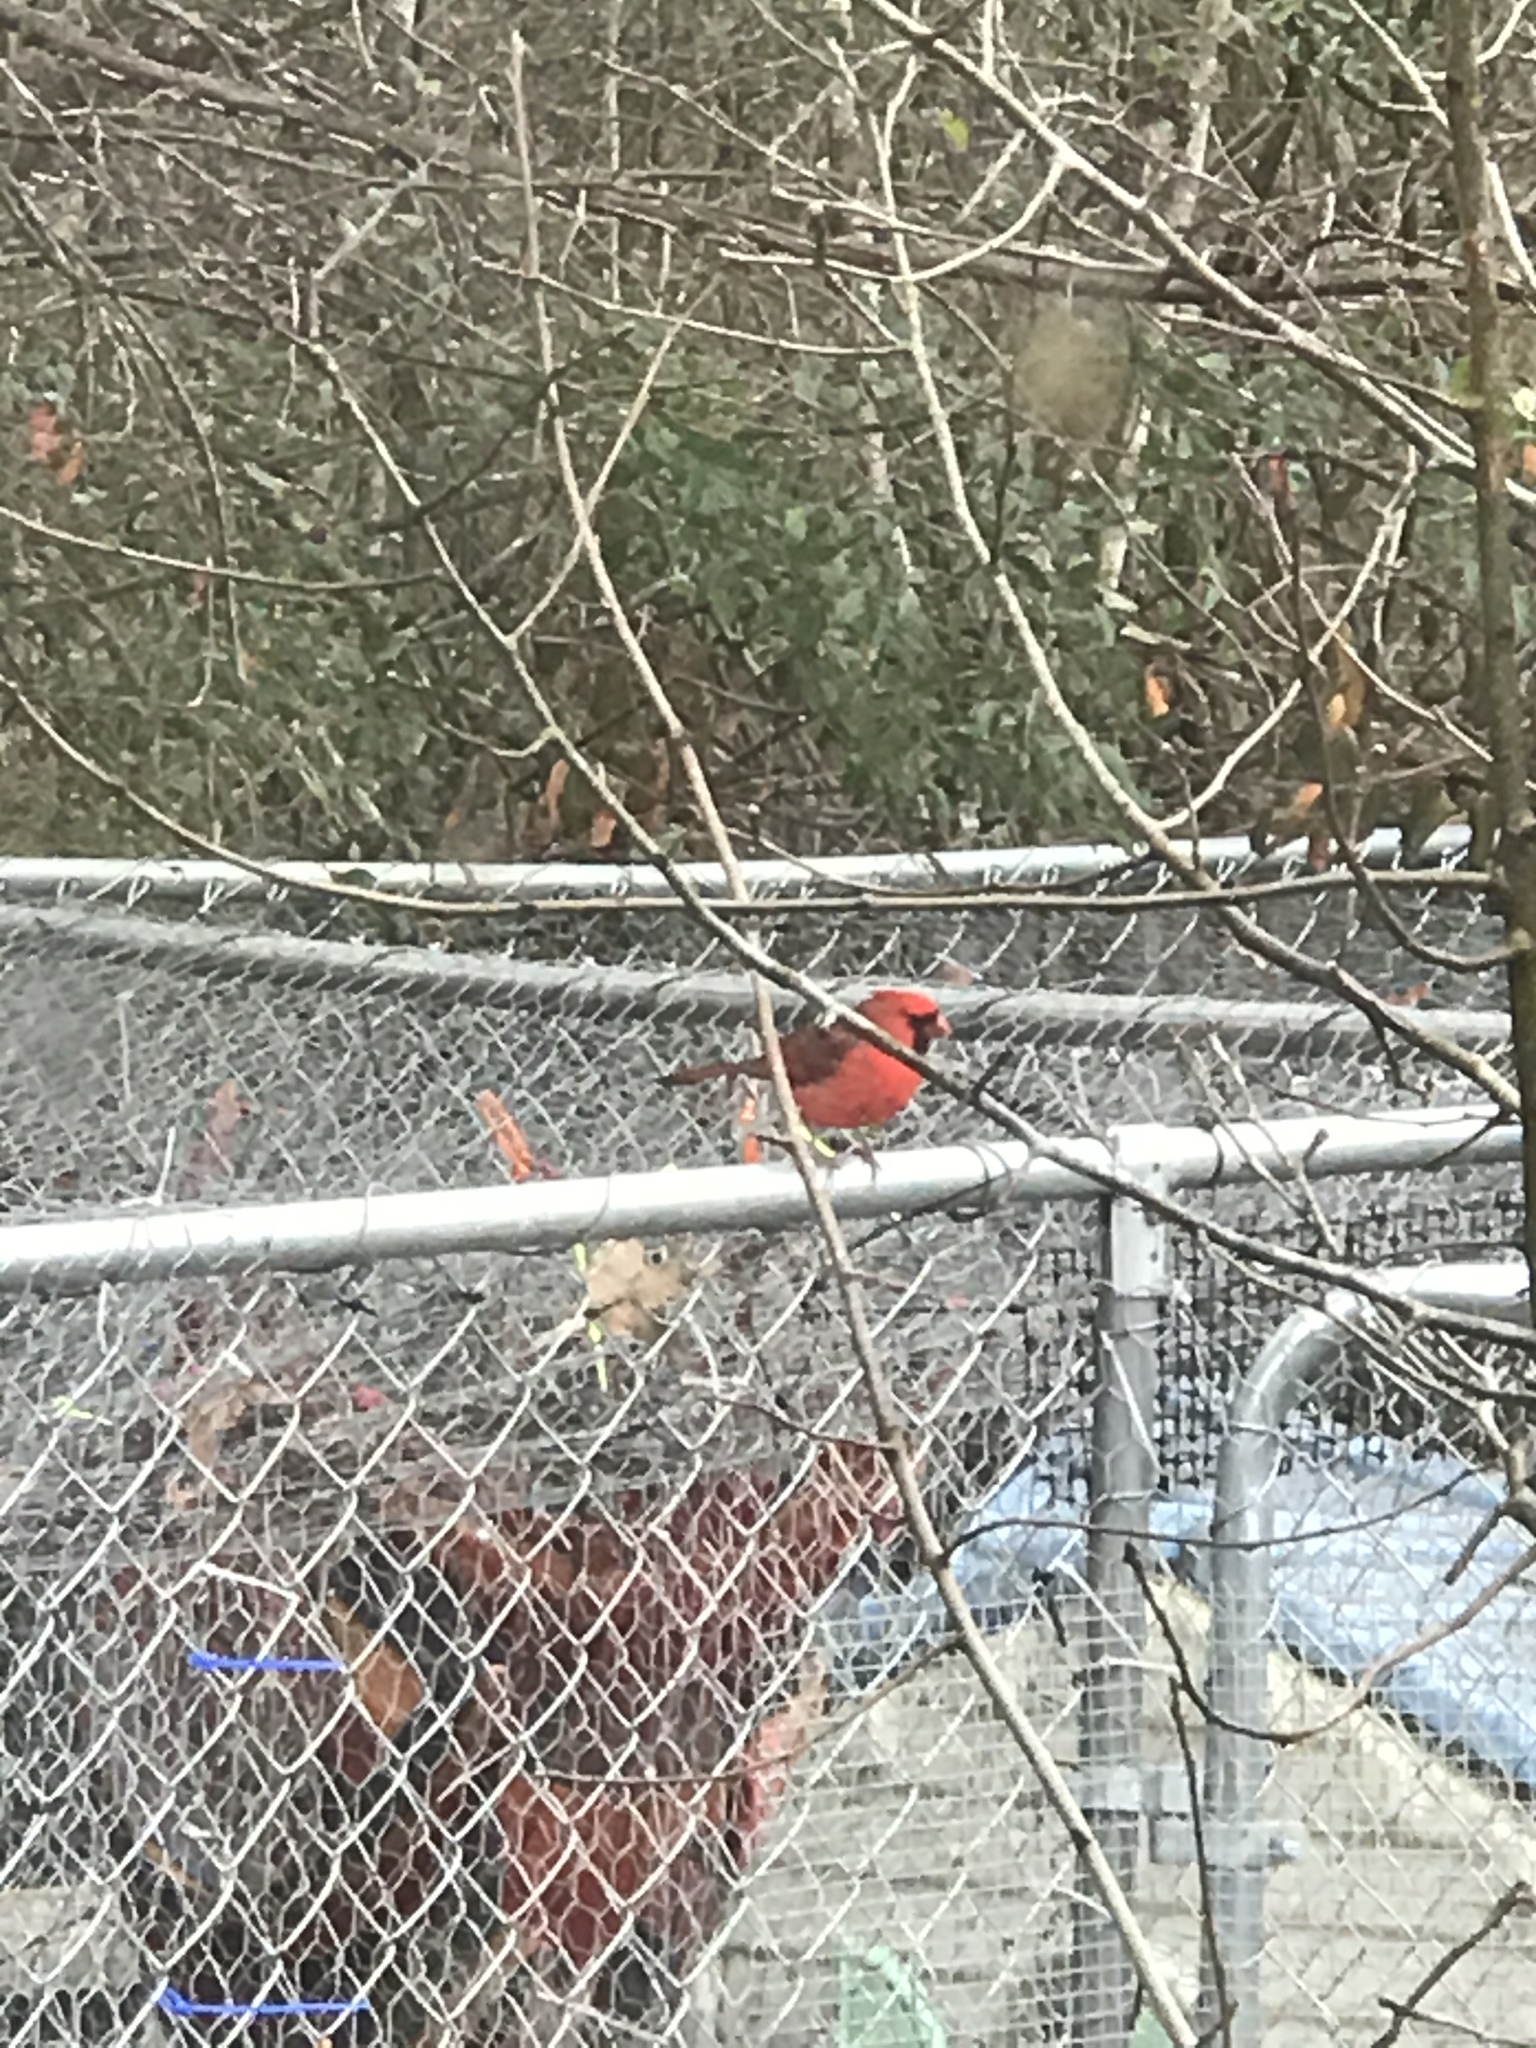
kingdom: Animalia
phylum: Chordata
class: Aves
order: Passeriformes
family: Cardinalidae
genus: Cardinalis
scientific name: Cardinalis cardinalis
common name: Northern cardinal
